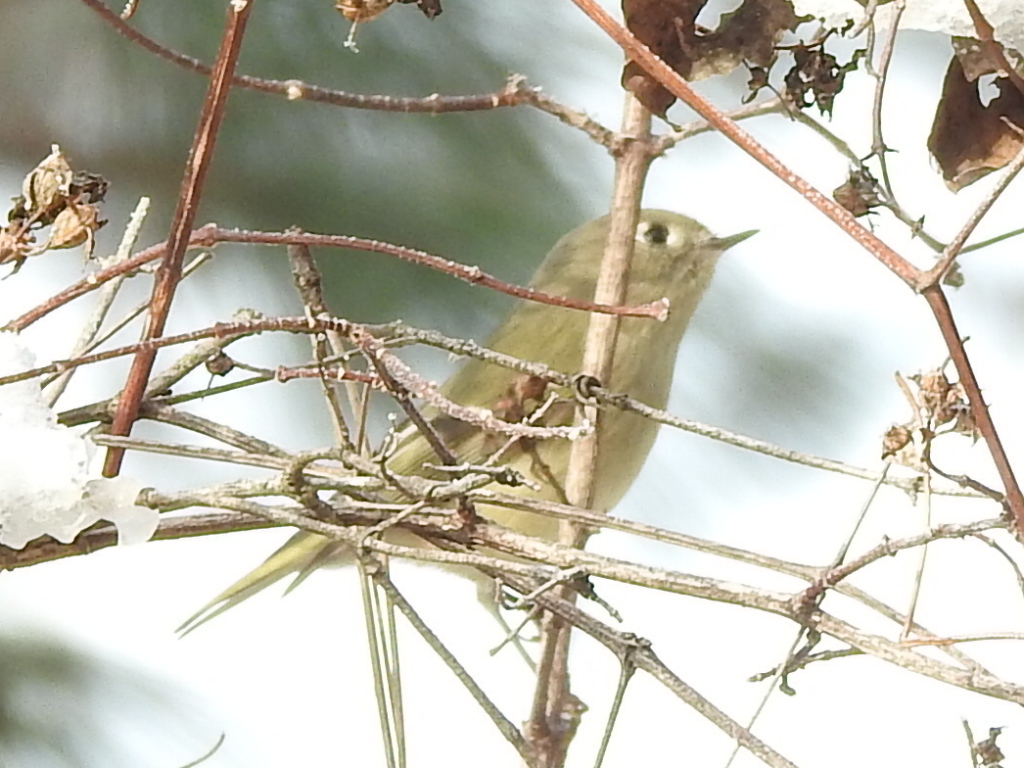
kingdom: Animalia
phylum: Chordata
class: Aves
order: Passeriformes
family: Regulidae
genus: Regulus
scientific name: Regulus calendula
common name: Ruby-crowned kinglet
